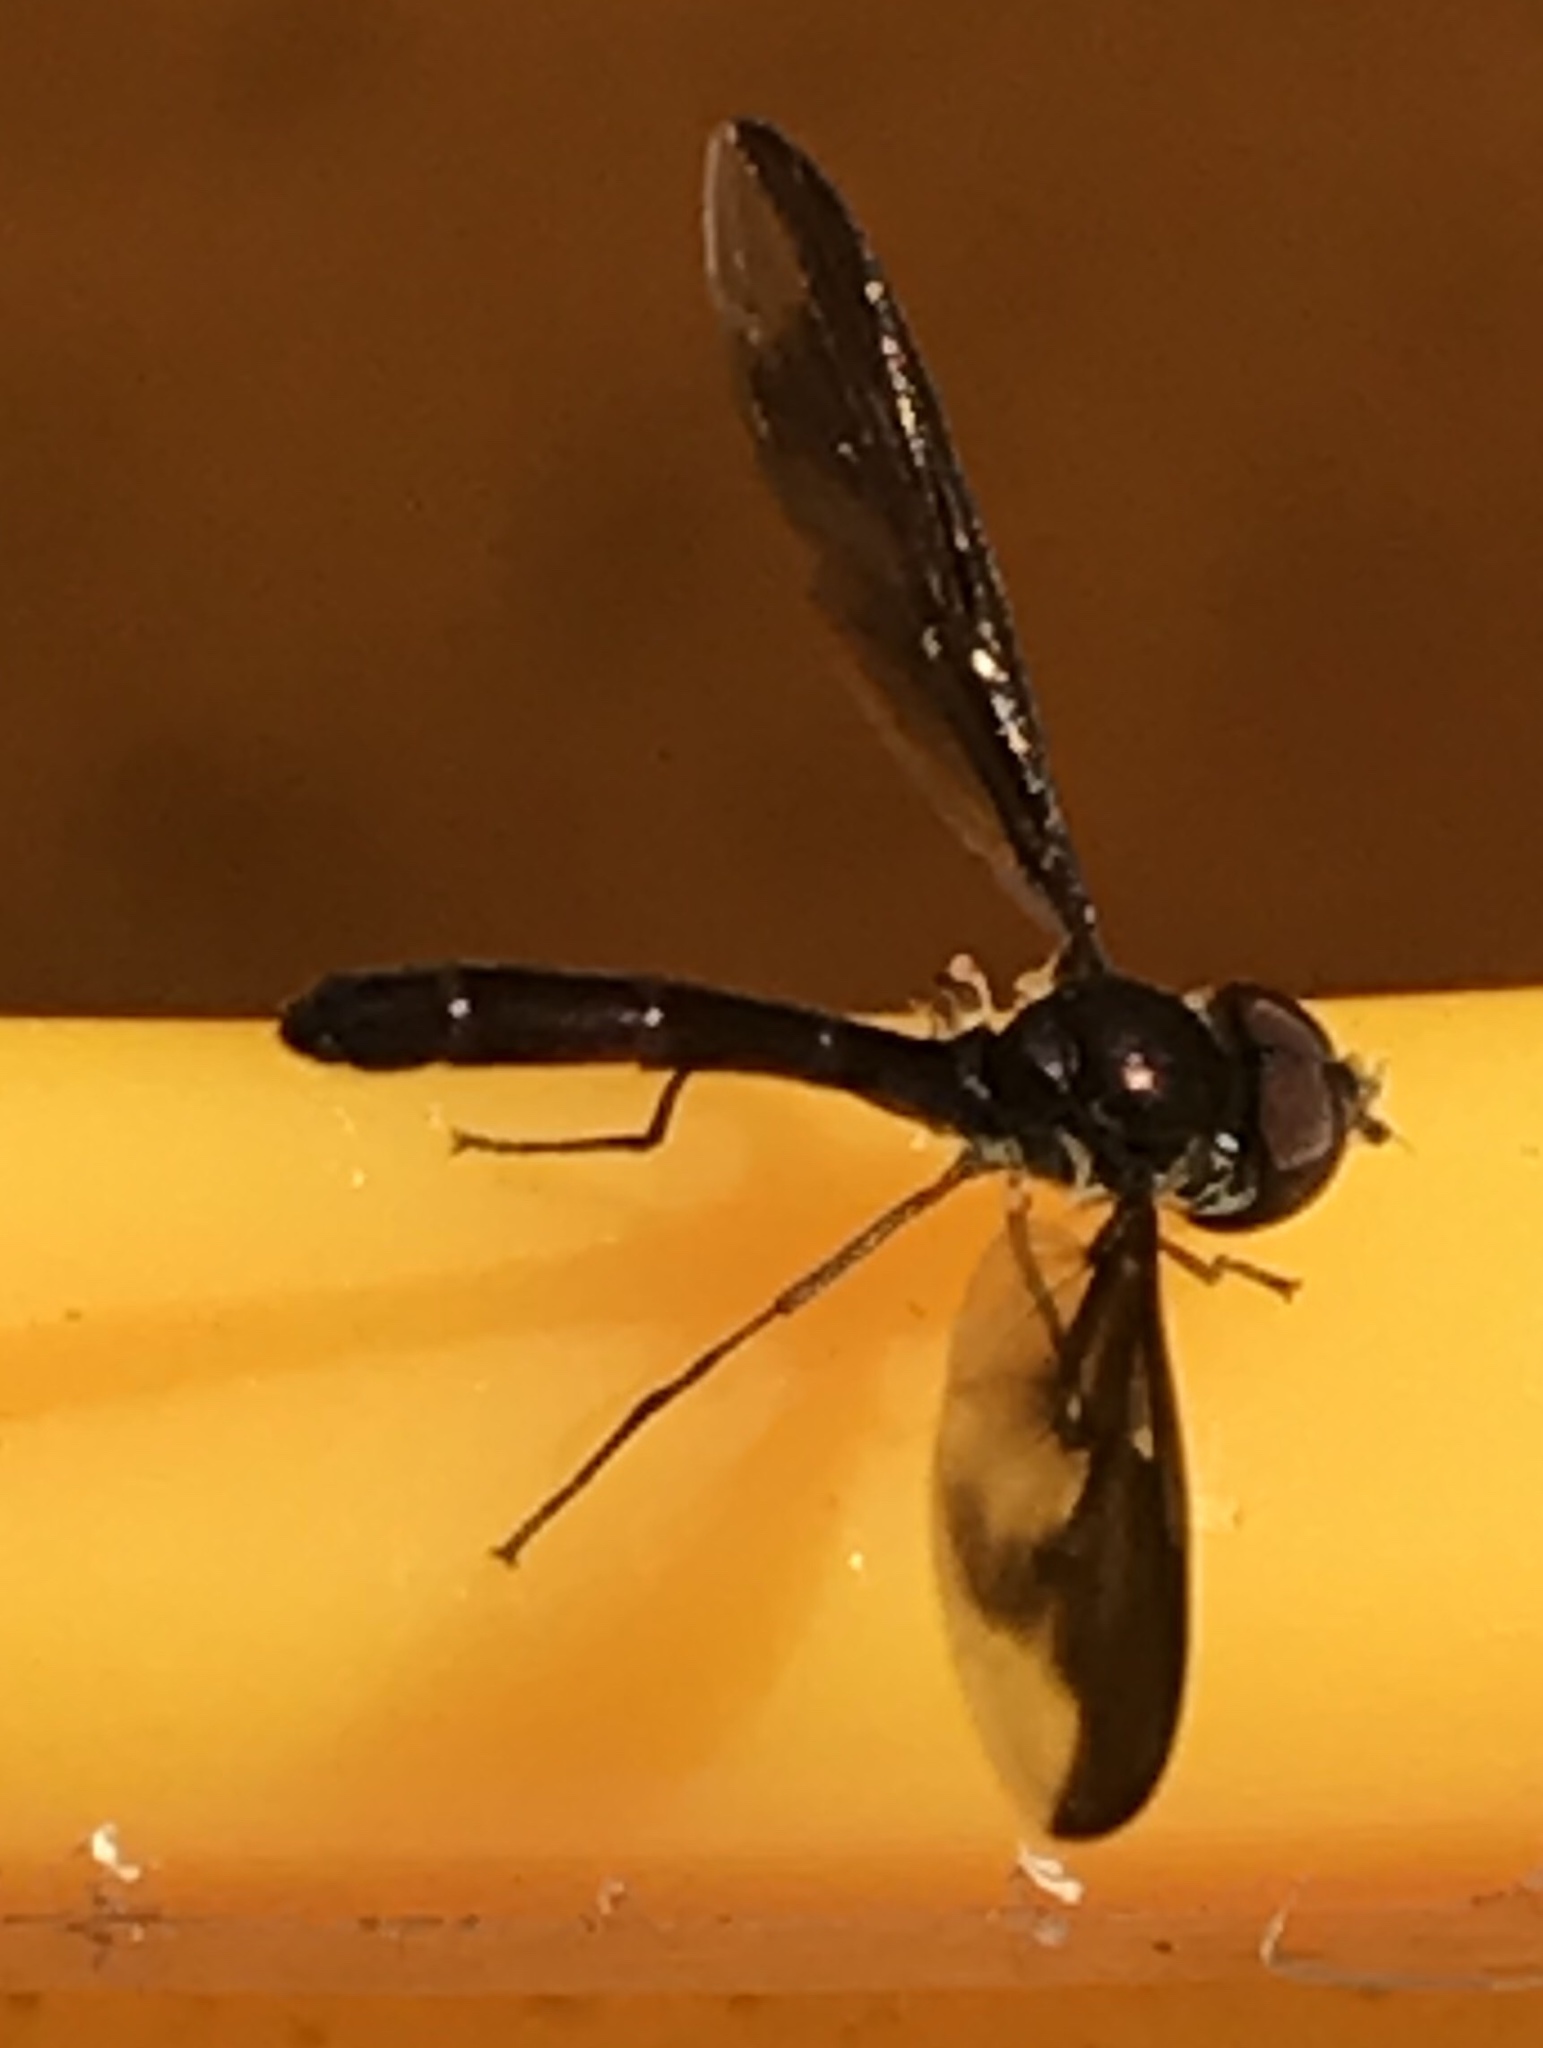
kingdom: Animalia
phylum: Arthropoda
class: Insecta
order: Diptera
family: Syrphidae
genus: Ocyptamus
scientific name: Ocyptamus fuscipennis
